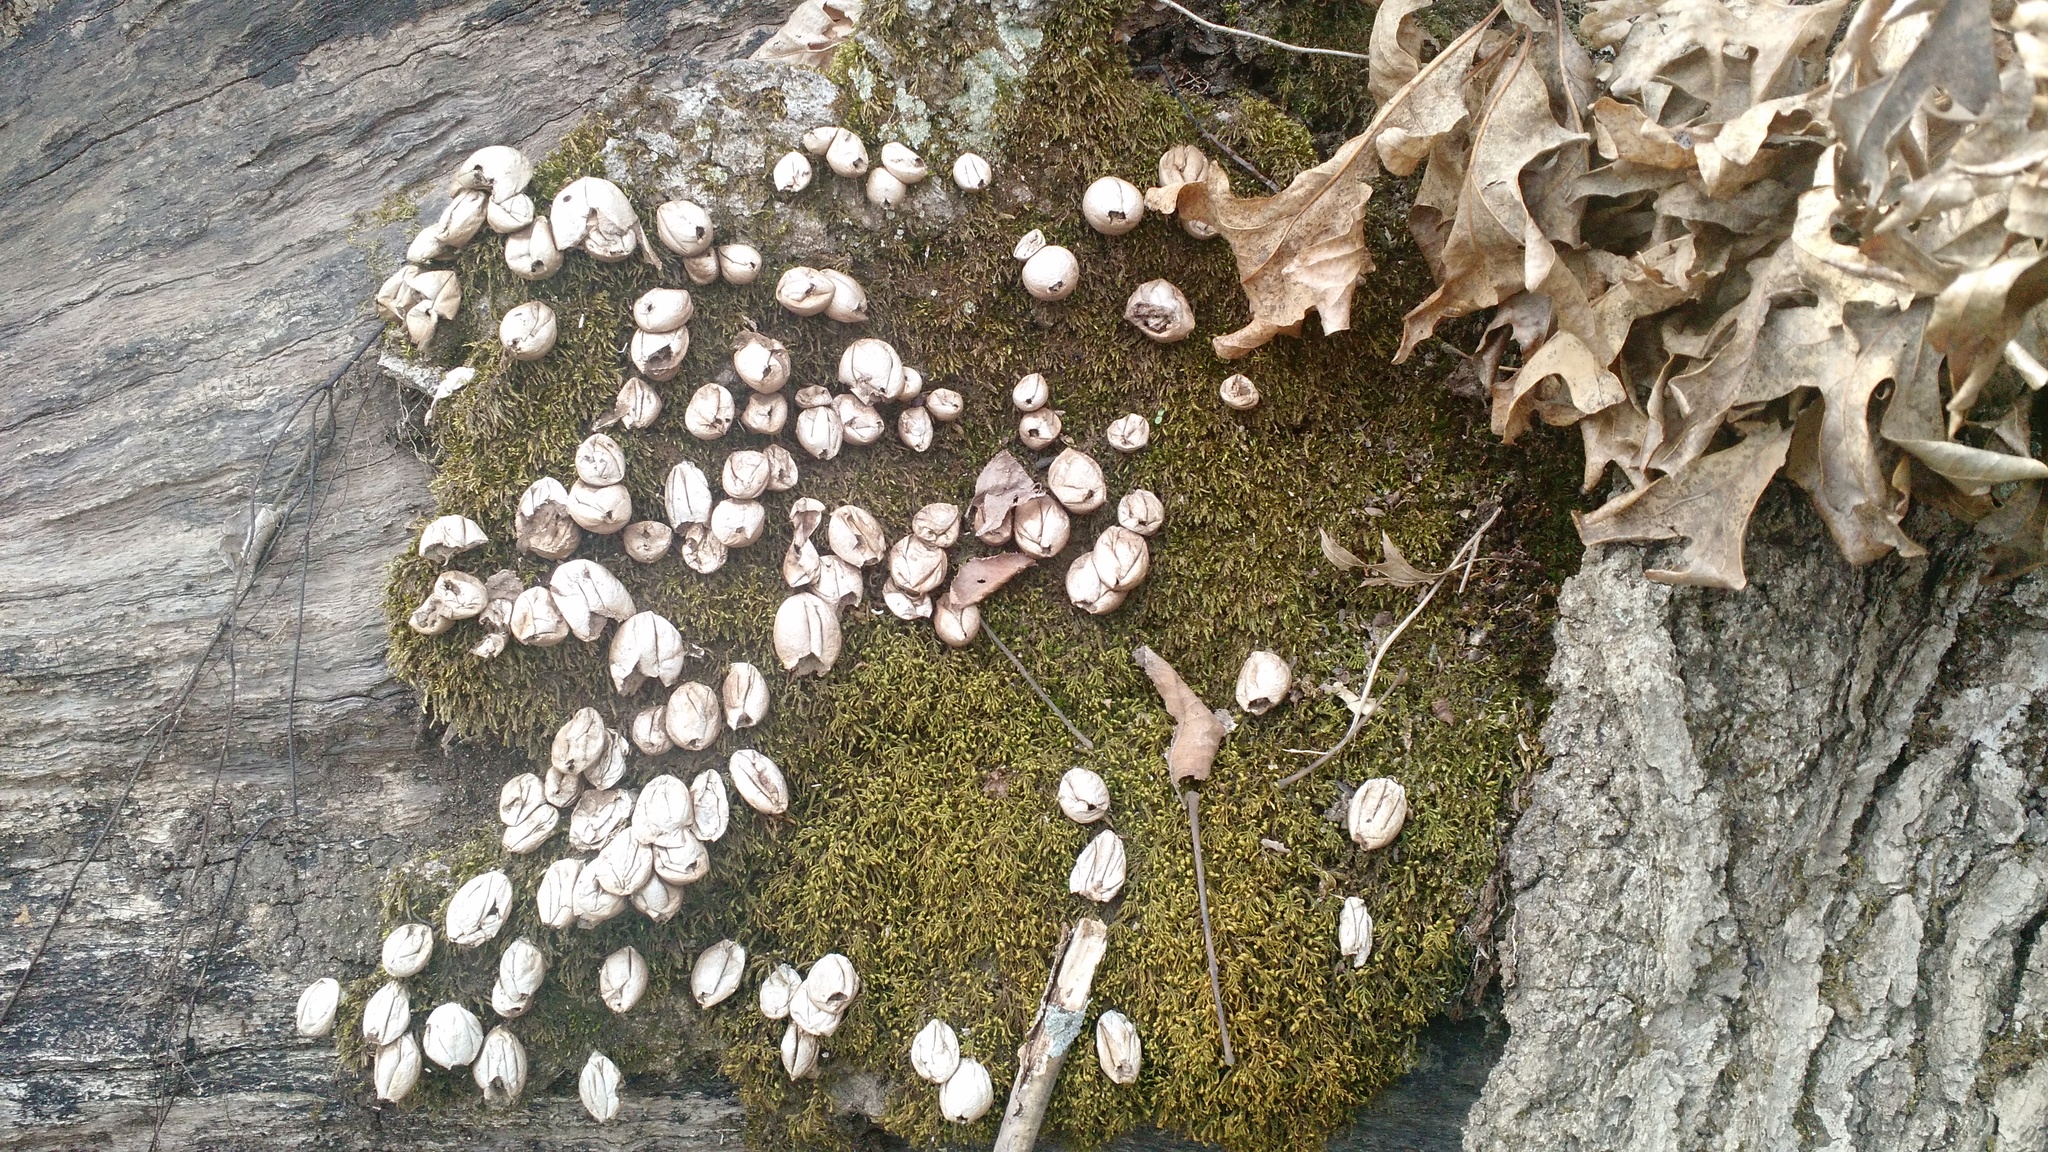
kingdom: Fungi
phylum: Basidiomycota
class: Agaricomycetes
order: Agaricales
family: Lycoperdaceae
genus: Apioperdon
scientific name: Apioperdon pyriforme
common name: Pear-shaped puffball
